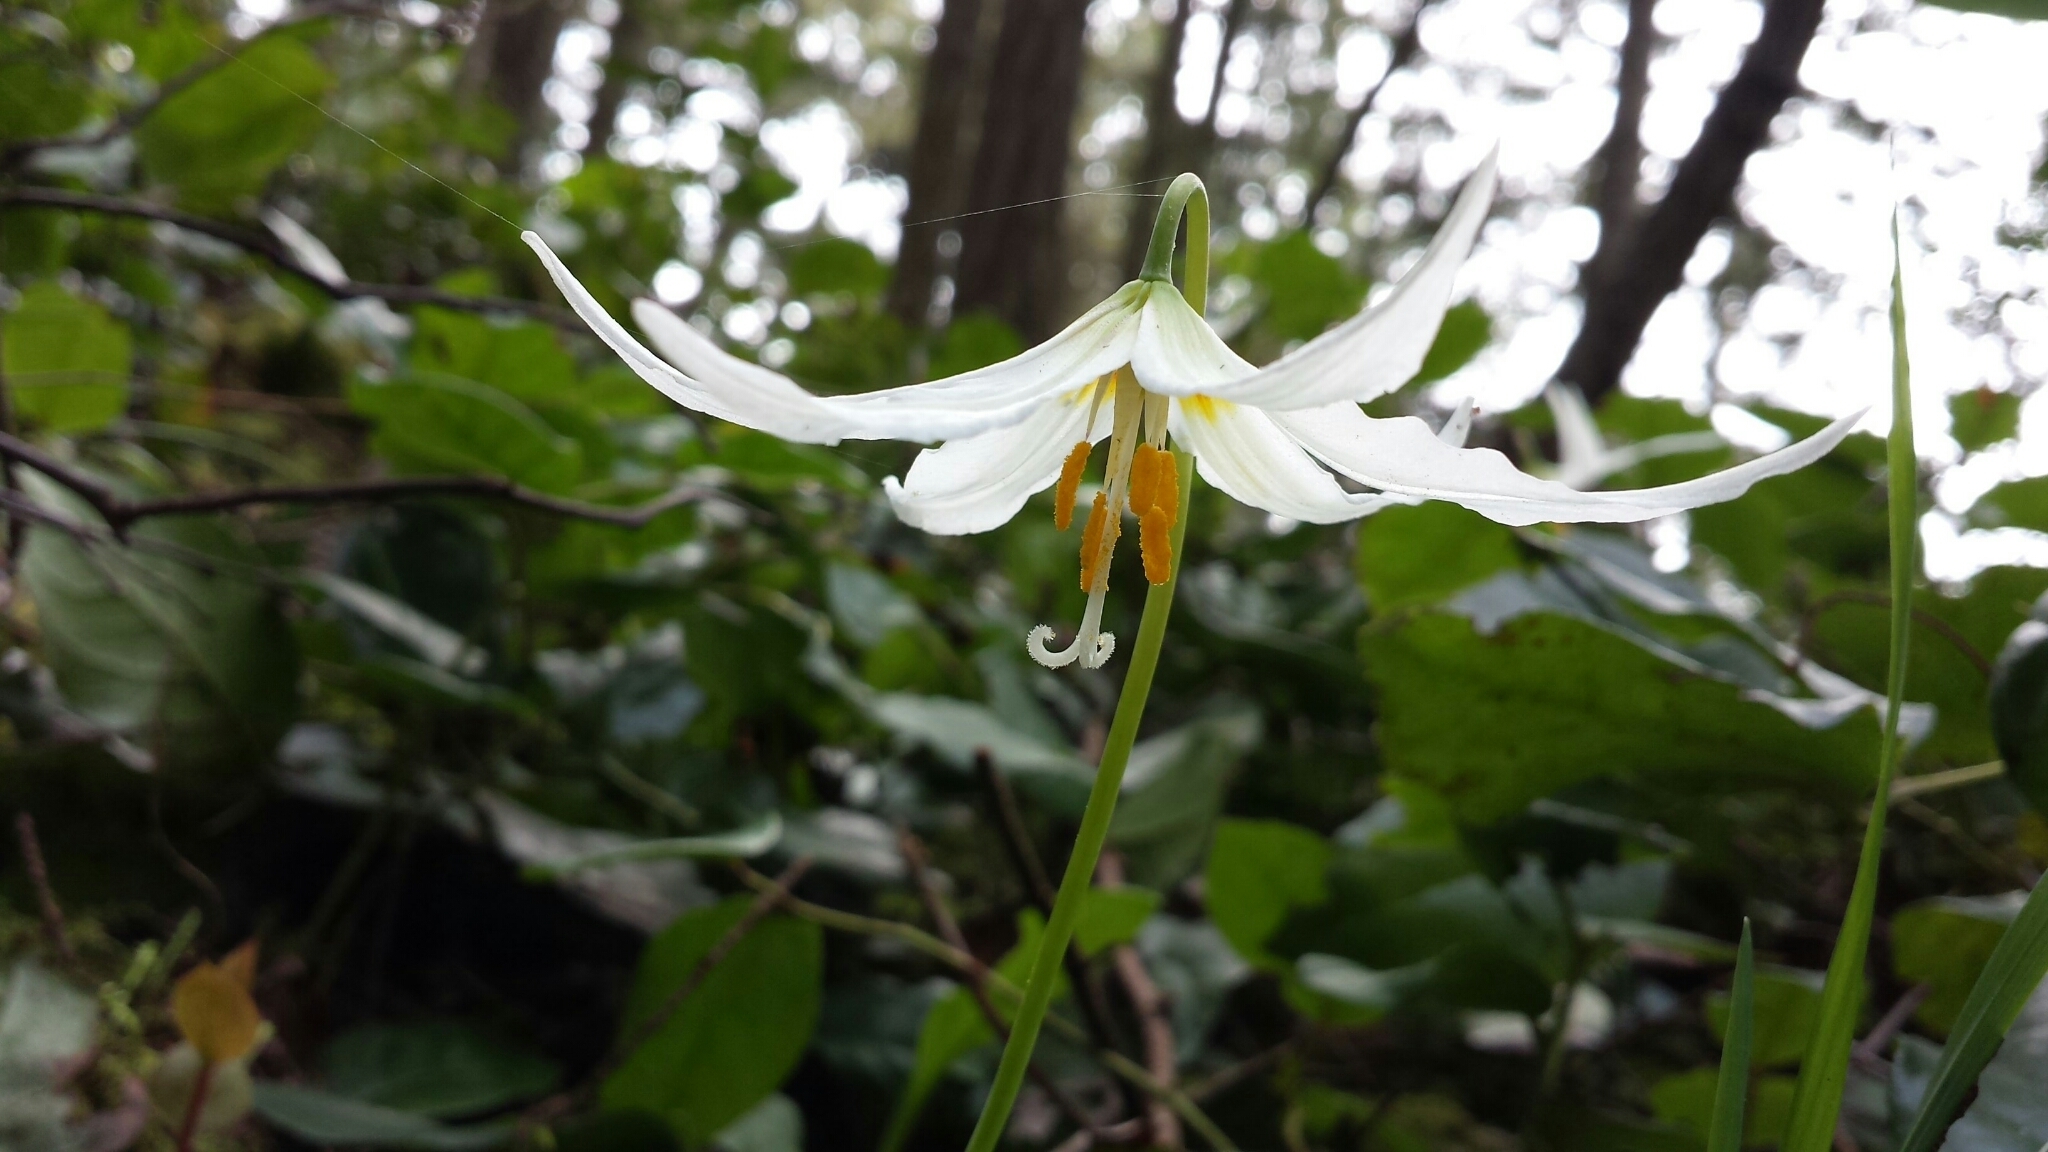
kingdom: Plantae
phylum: Tracheophyta
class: Liliopsida
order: Liliales
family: Liliaceae
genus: Erythronium
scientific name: Erythronium oregonum
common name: Giant adder's-tongue
